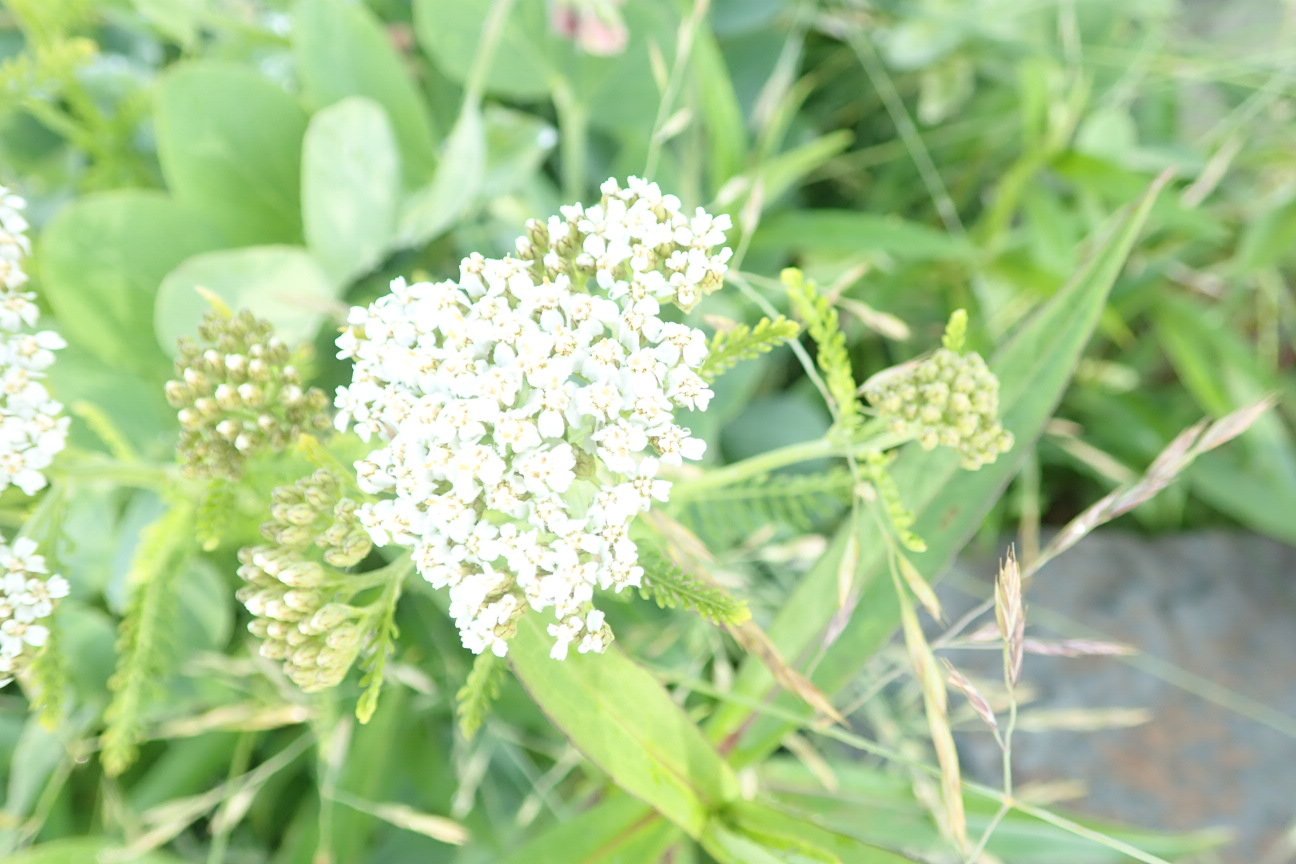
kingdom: Plantae
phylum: Tracheophyta
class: Magnoliopsida
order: Asterales
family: Asteraceae
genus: Achillea
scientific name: Achillea millefolium
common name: Yarrow
